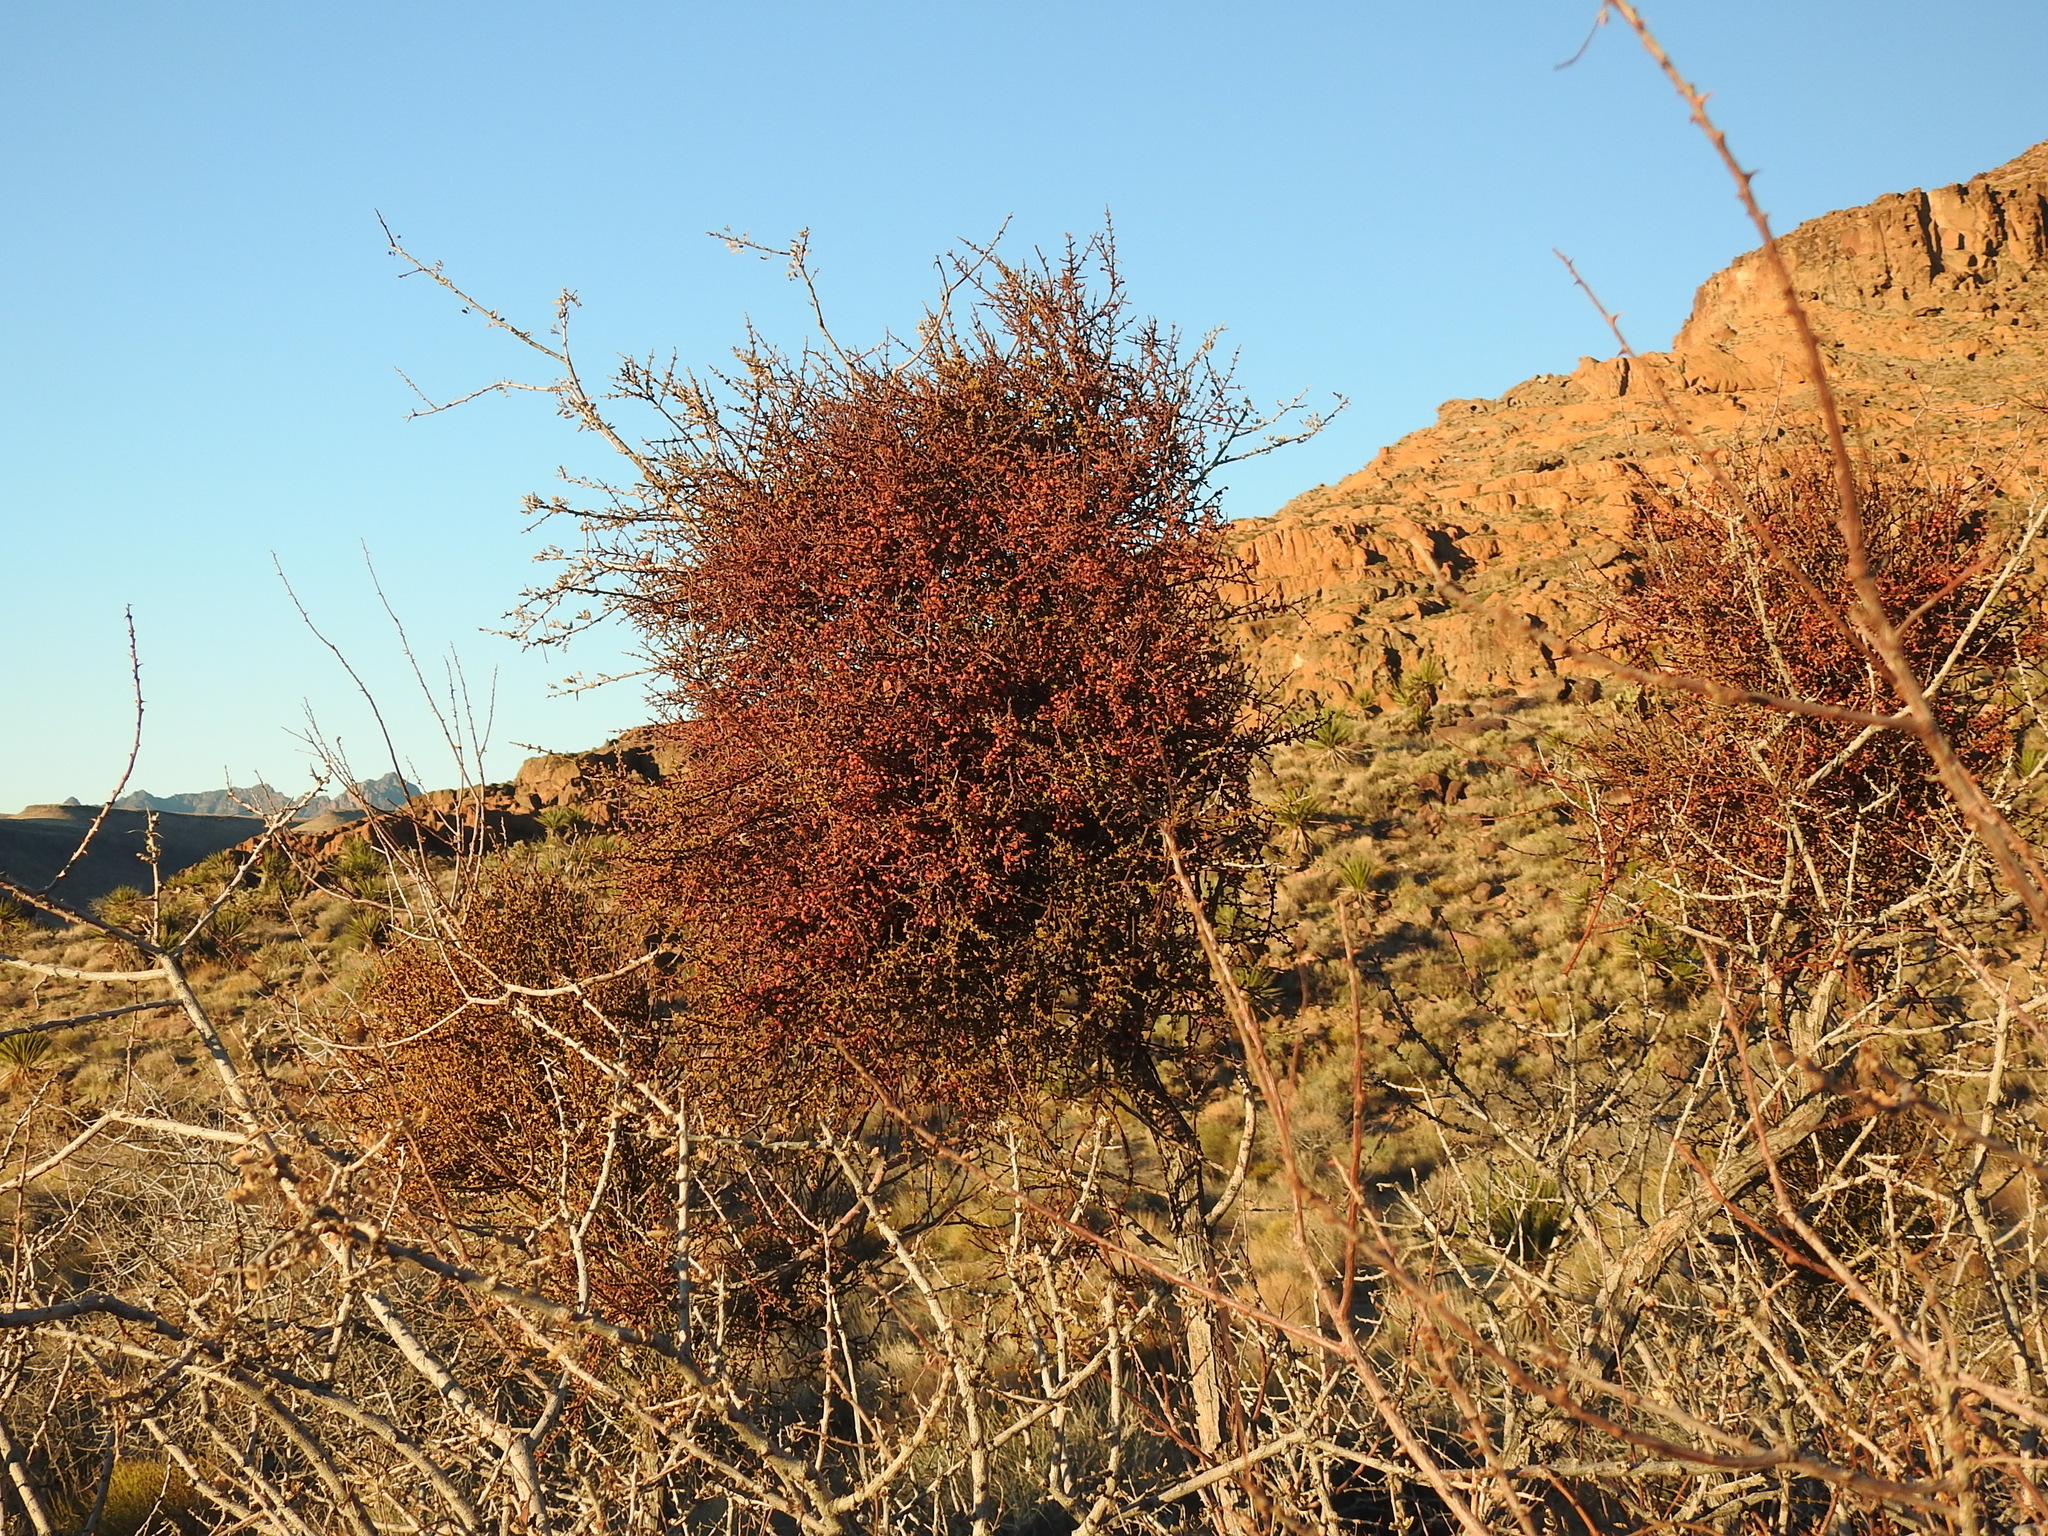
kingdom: Plantae
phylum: Tracheophyta
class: Magnoliopsida
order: Santalales
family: Viscaceae
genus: Phoradendron
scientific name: Phoradendron californicum
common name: Acacia mistletoe
